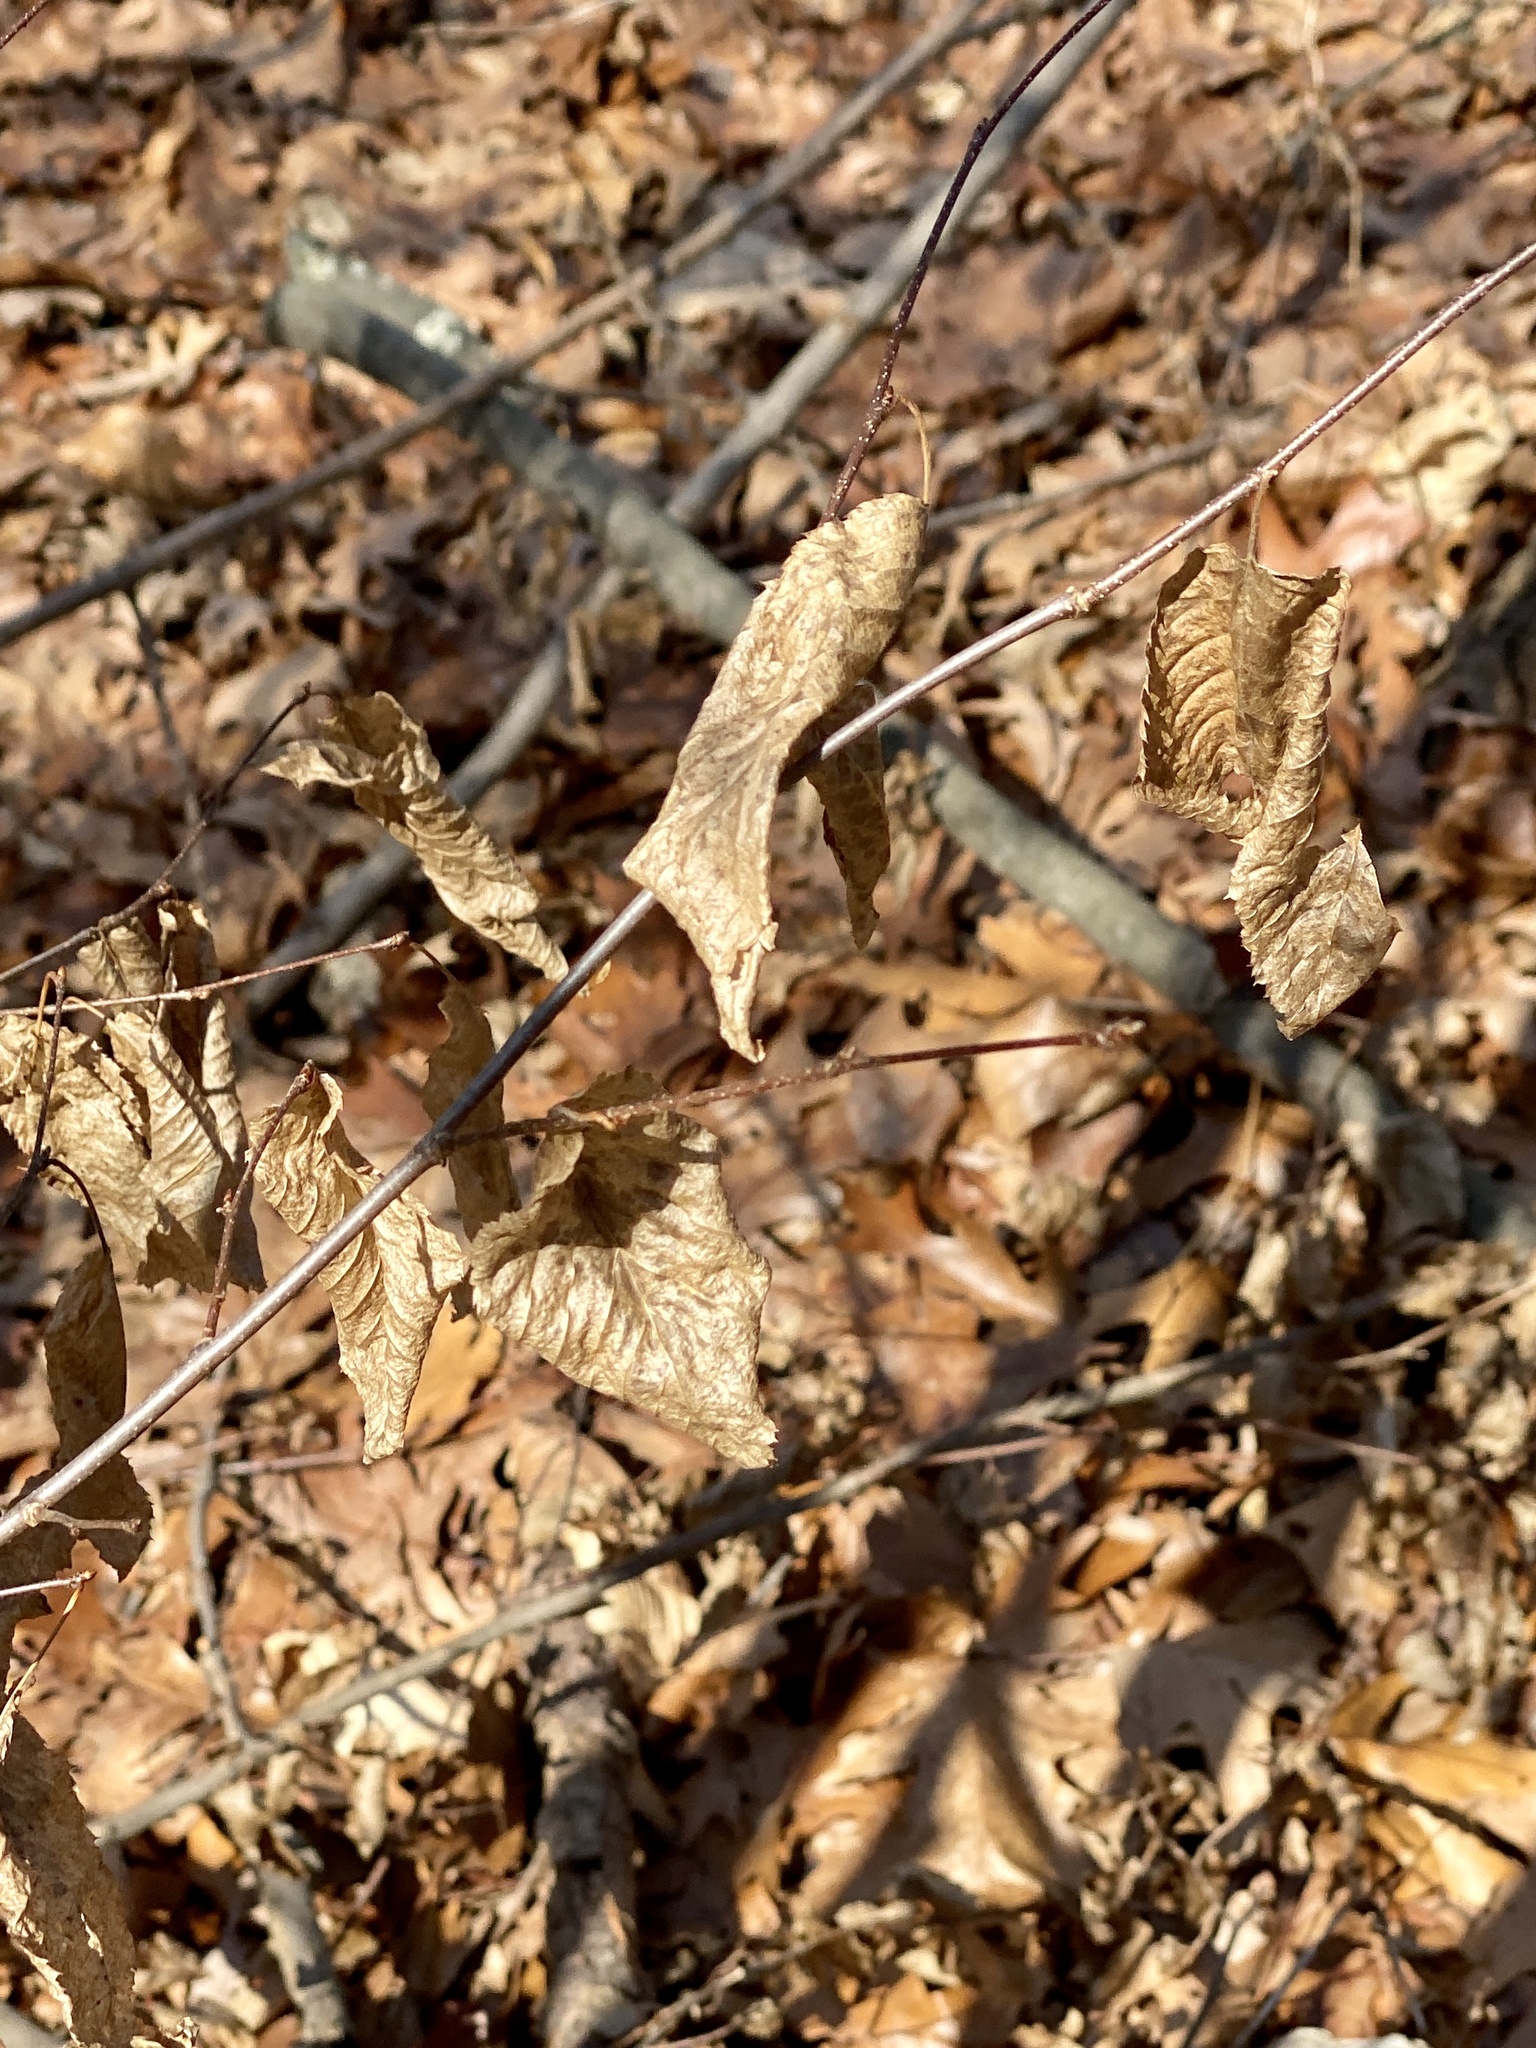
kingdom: Plantae
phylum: Tracheophyta
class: Magnoliopsida
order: Fagales
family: Betulaceae
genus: Carpinus
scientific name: Carpinus caroliniana
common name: American hornbeam
